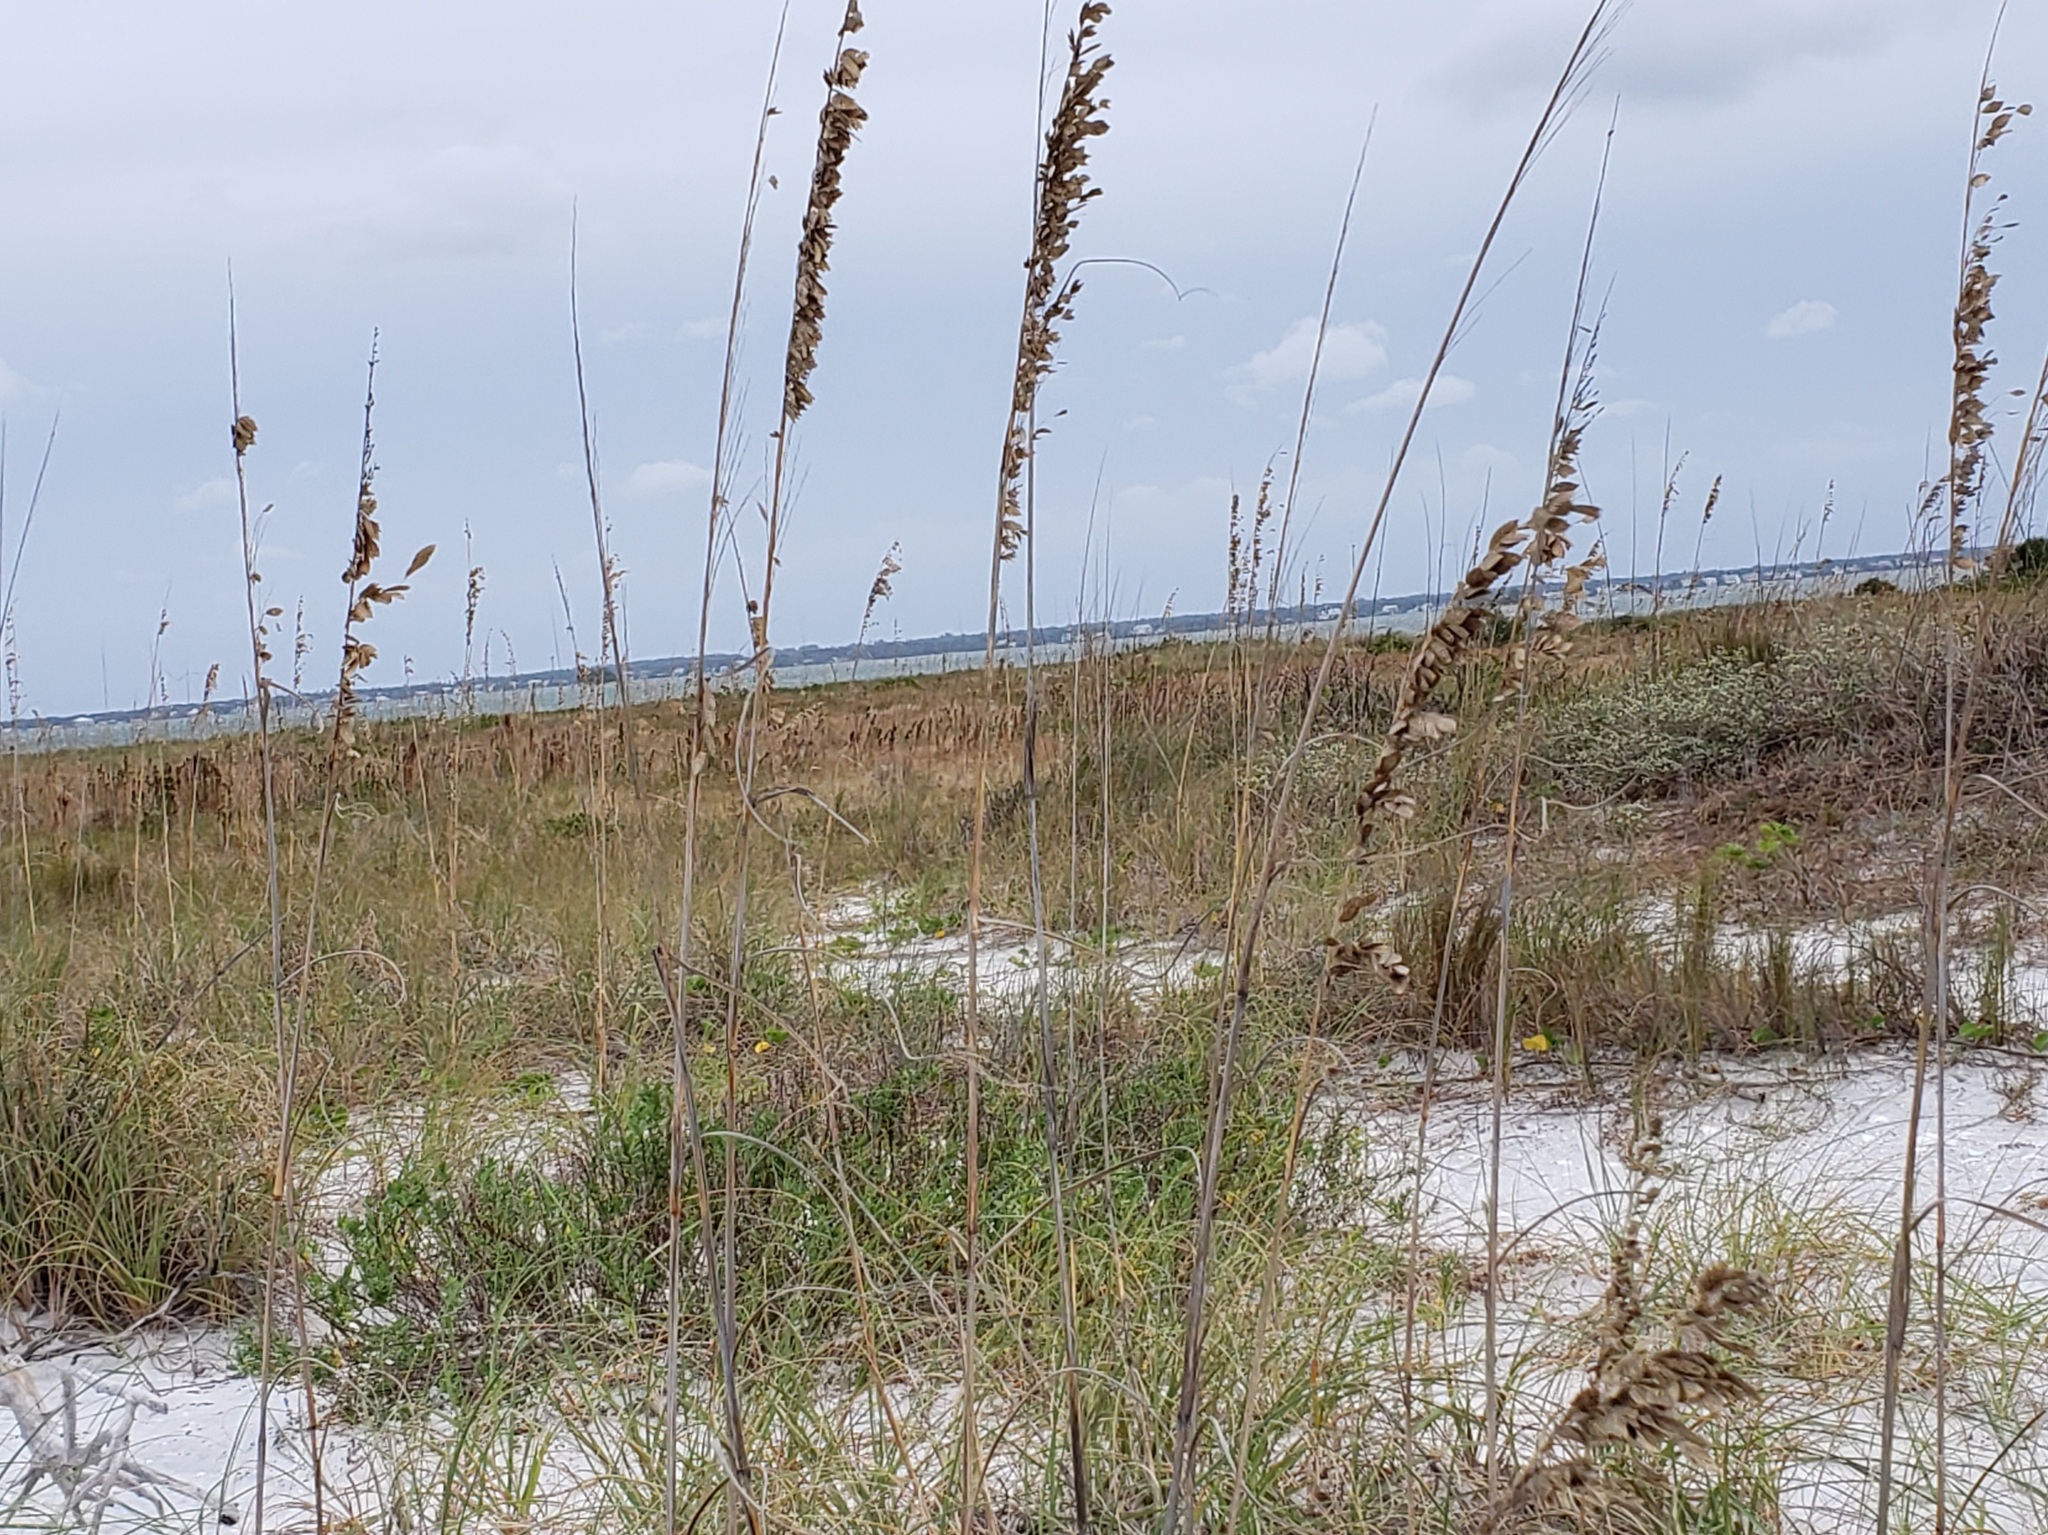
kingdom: Plantae
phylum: Tracheophyta
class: Liliopsida
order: Poales
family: Poaceae
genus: Uniola
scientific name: Uniola paniculata
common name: Seaside-oats
